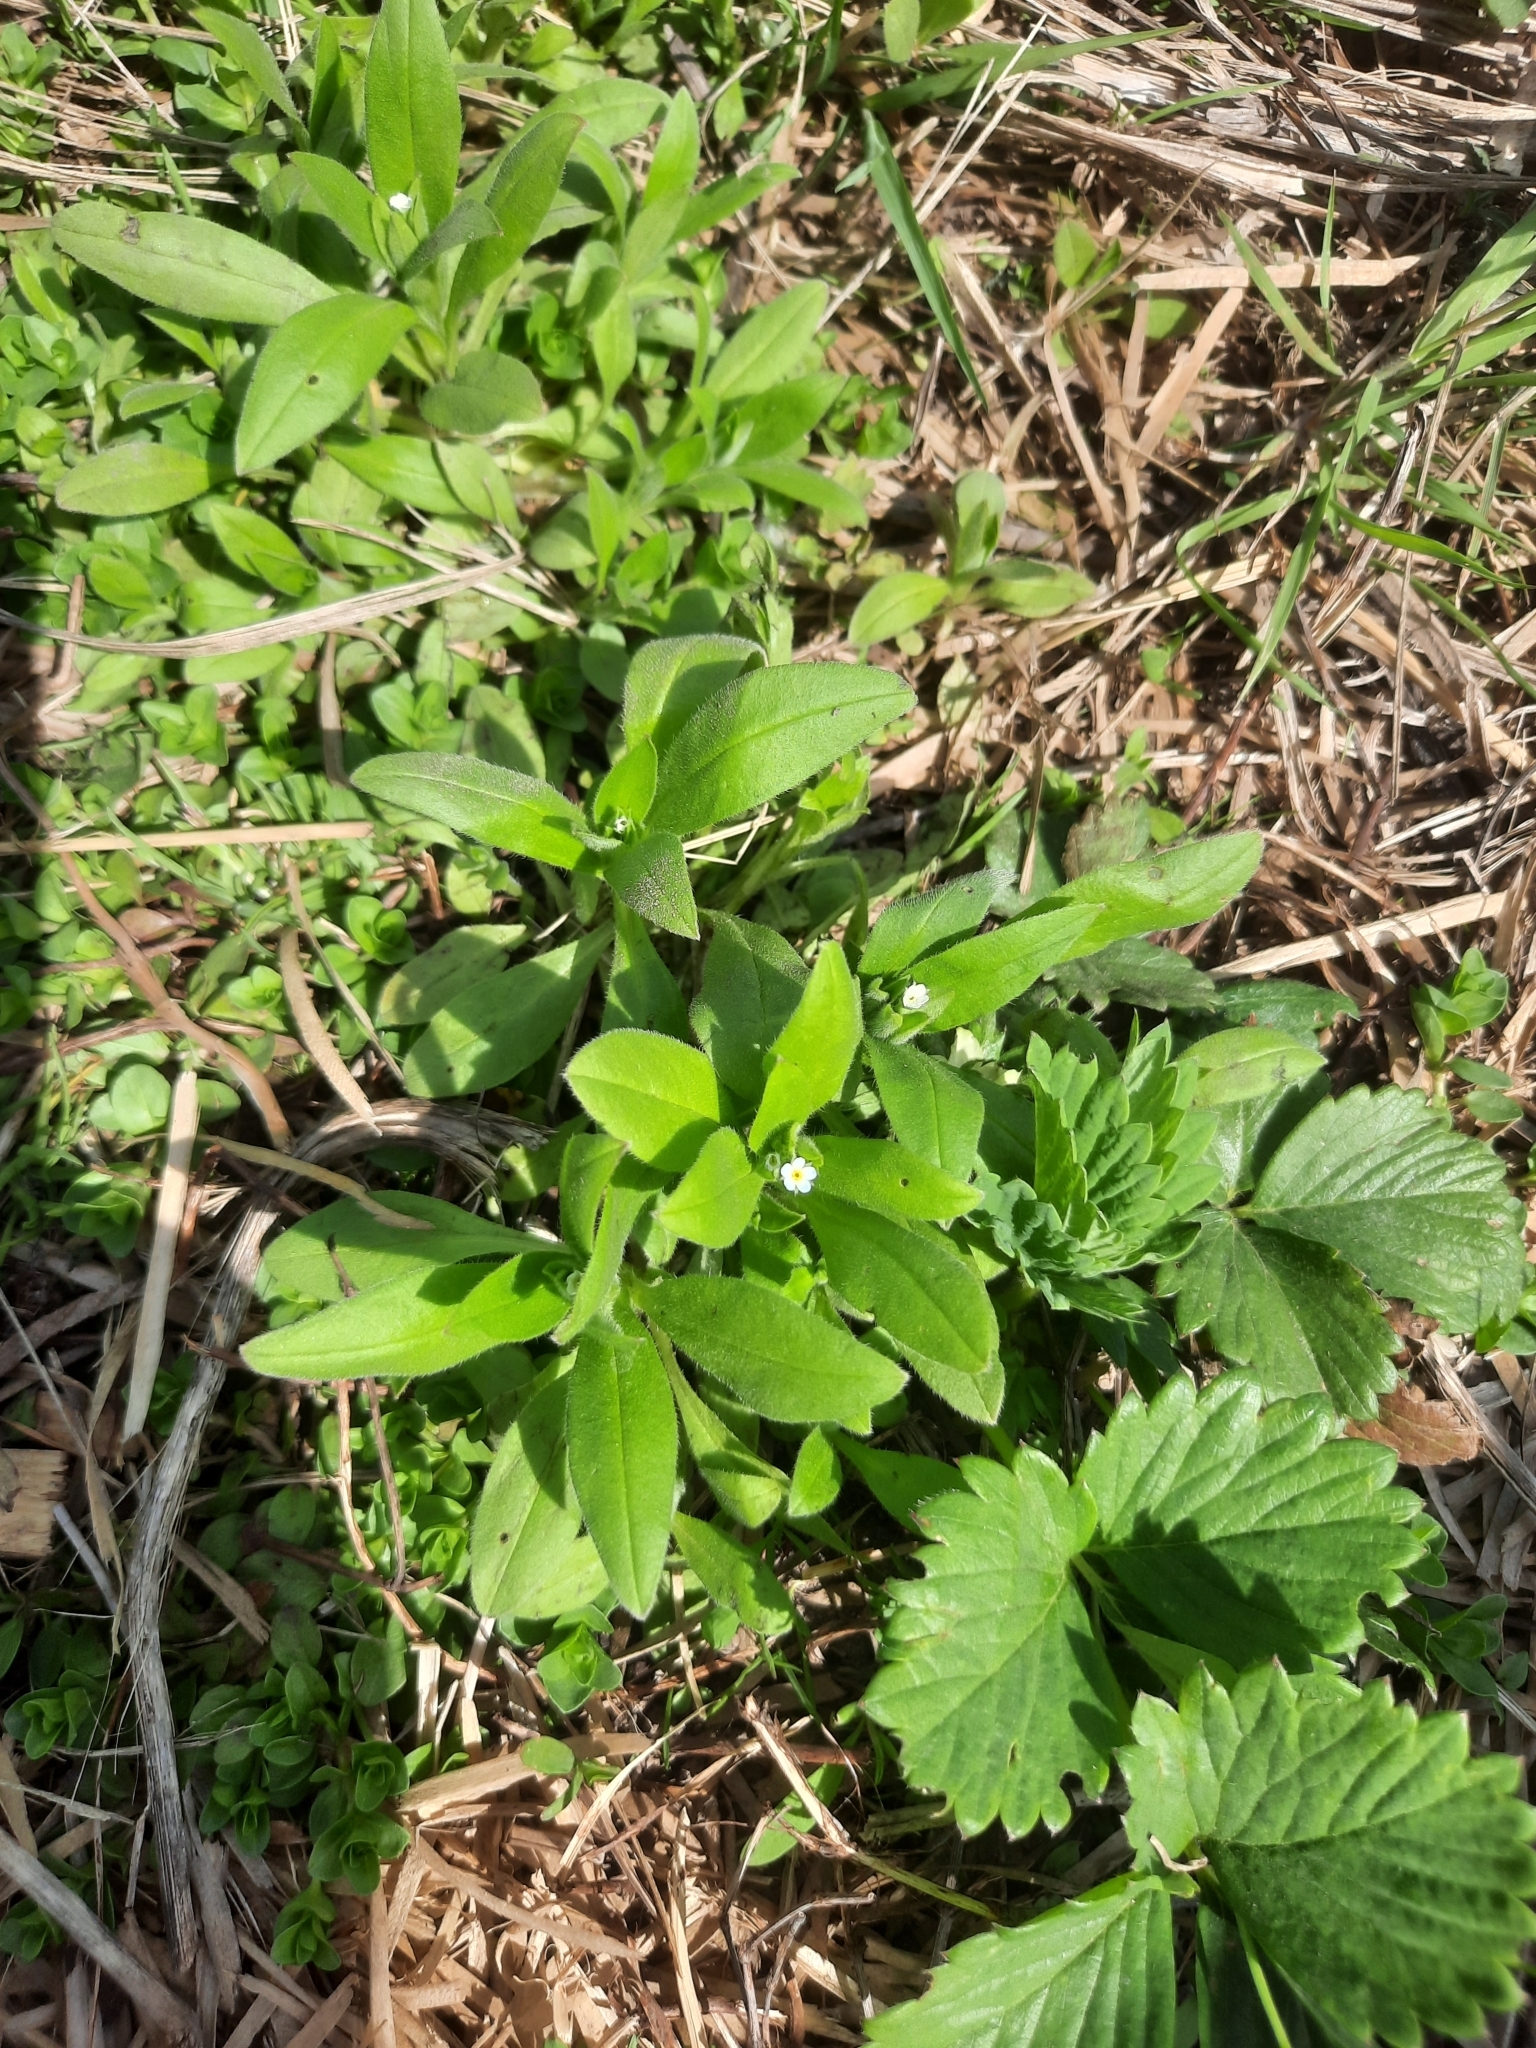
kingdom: Plantae
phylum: Tracheophyta
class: Magnoliopsida
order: Boraginales
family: Boraginaceae
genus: Myosotis
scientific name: Myosotis sparsiflora
